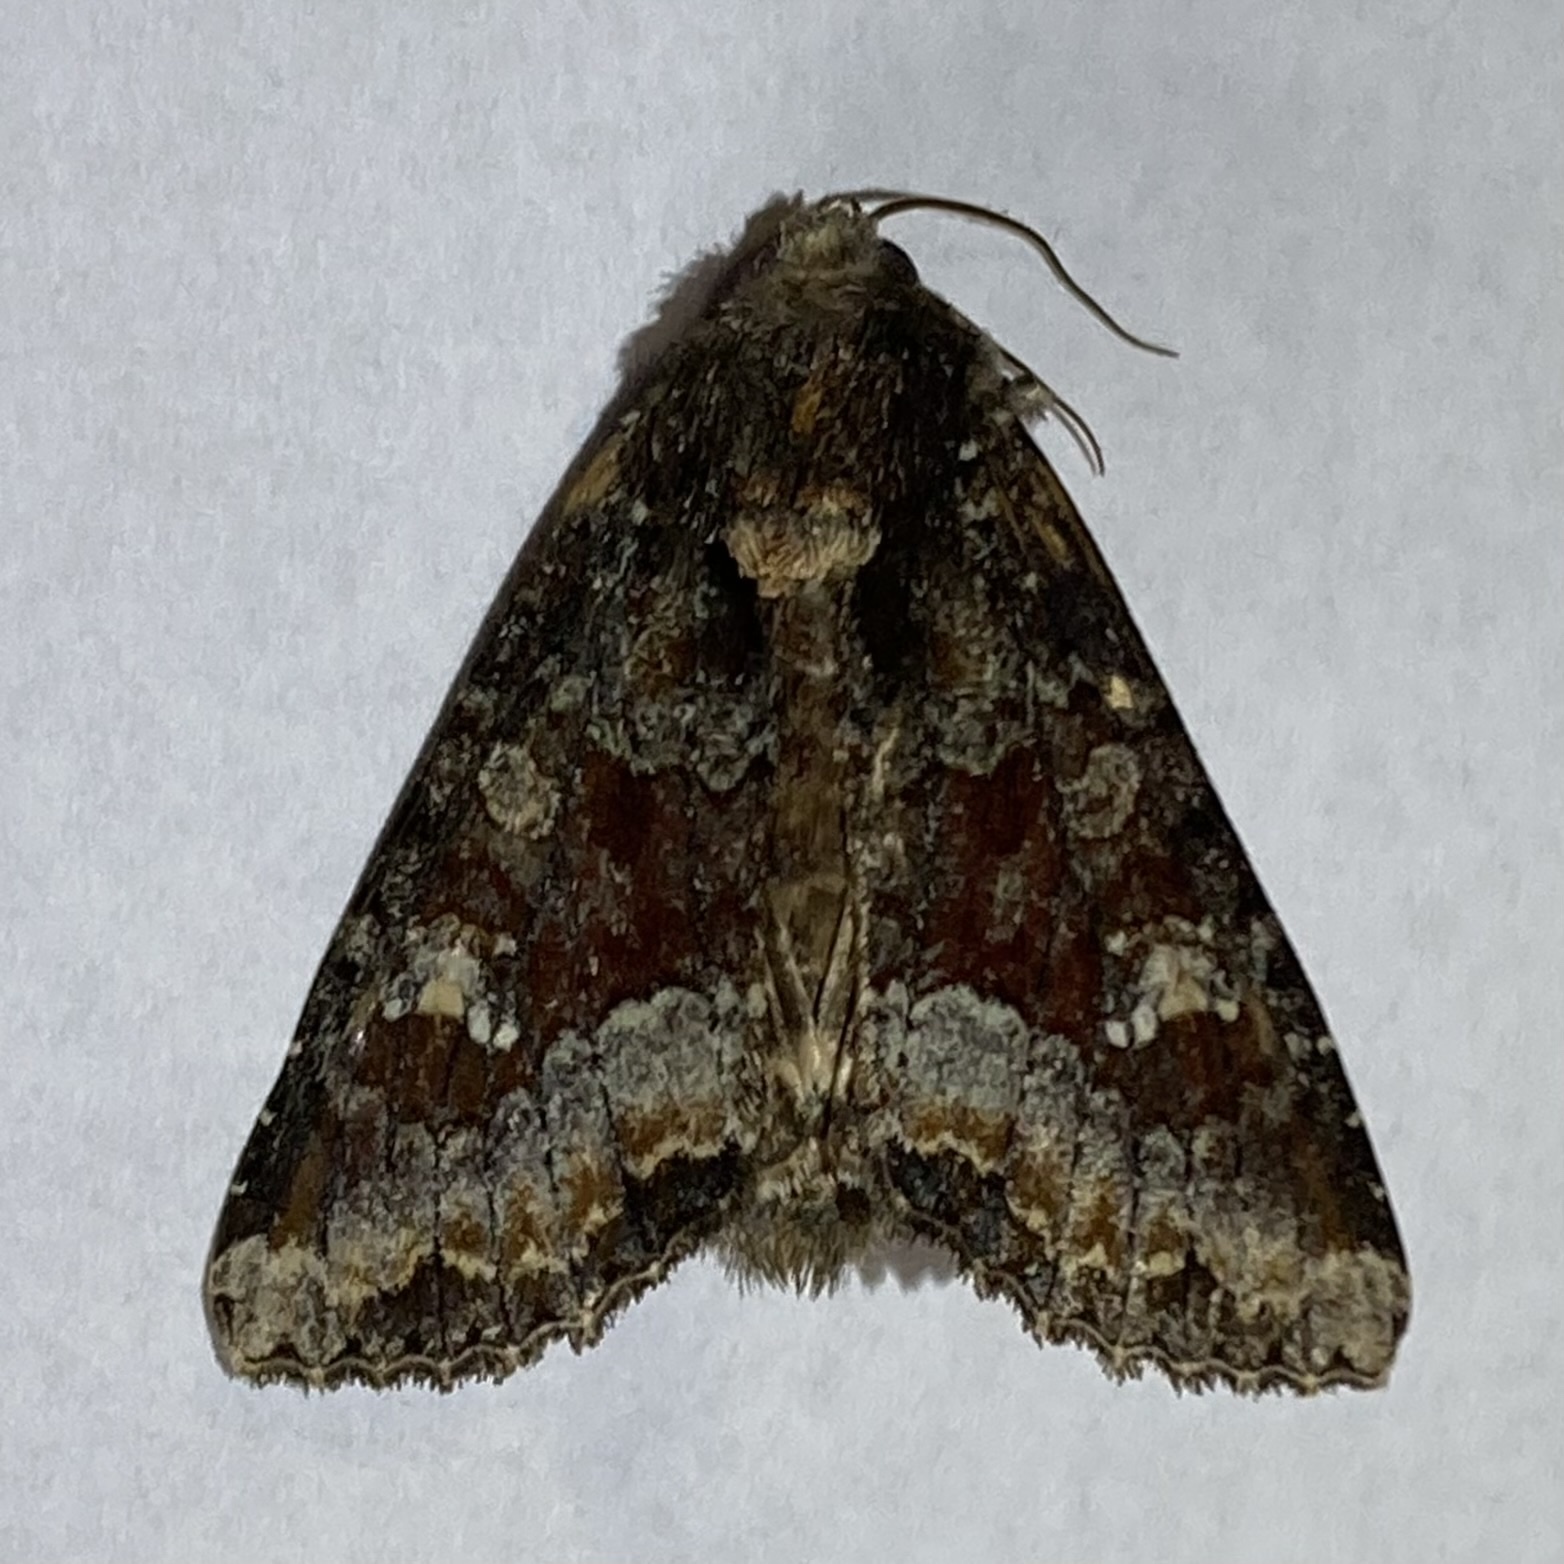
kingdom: Animalia
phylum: Arthropoda
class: Insecta
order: Lepidoptera
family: Noctuidae
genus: Apamea
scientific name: Apamea amputatrix
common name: Yellow-headed cutworm moth
